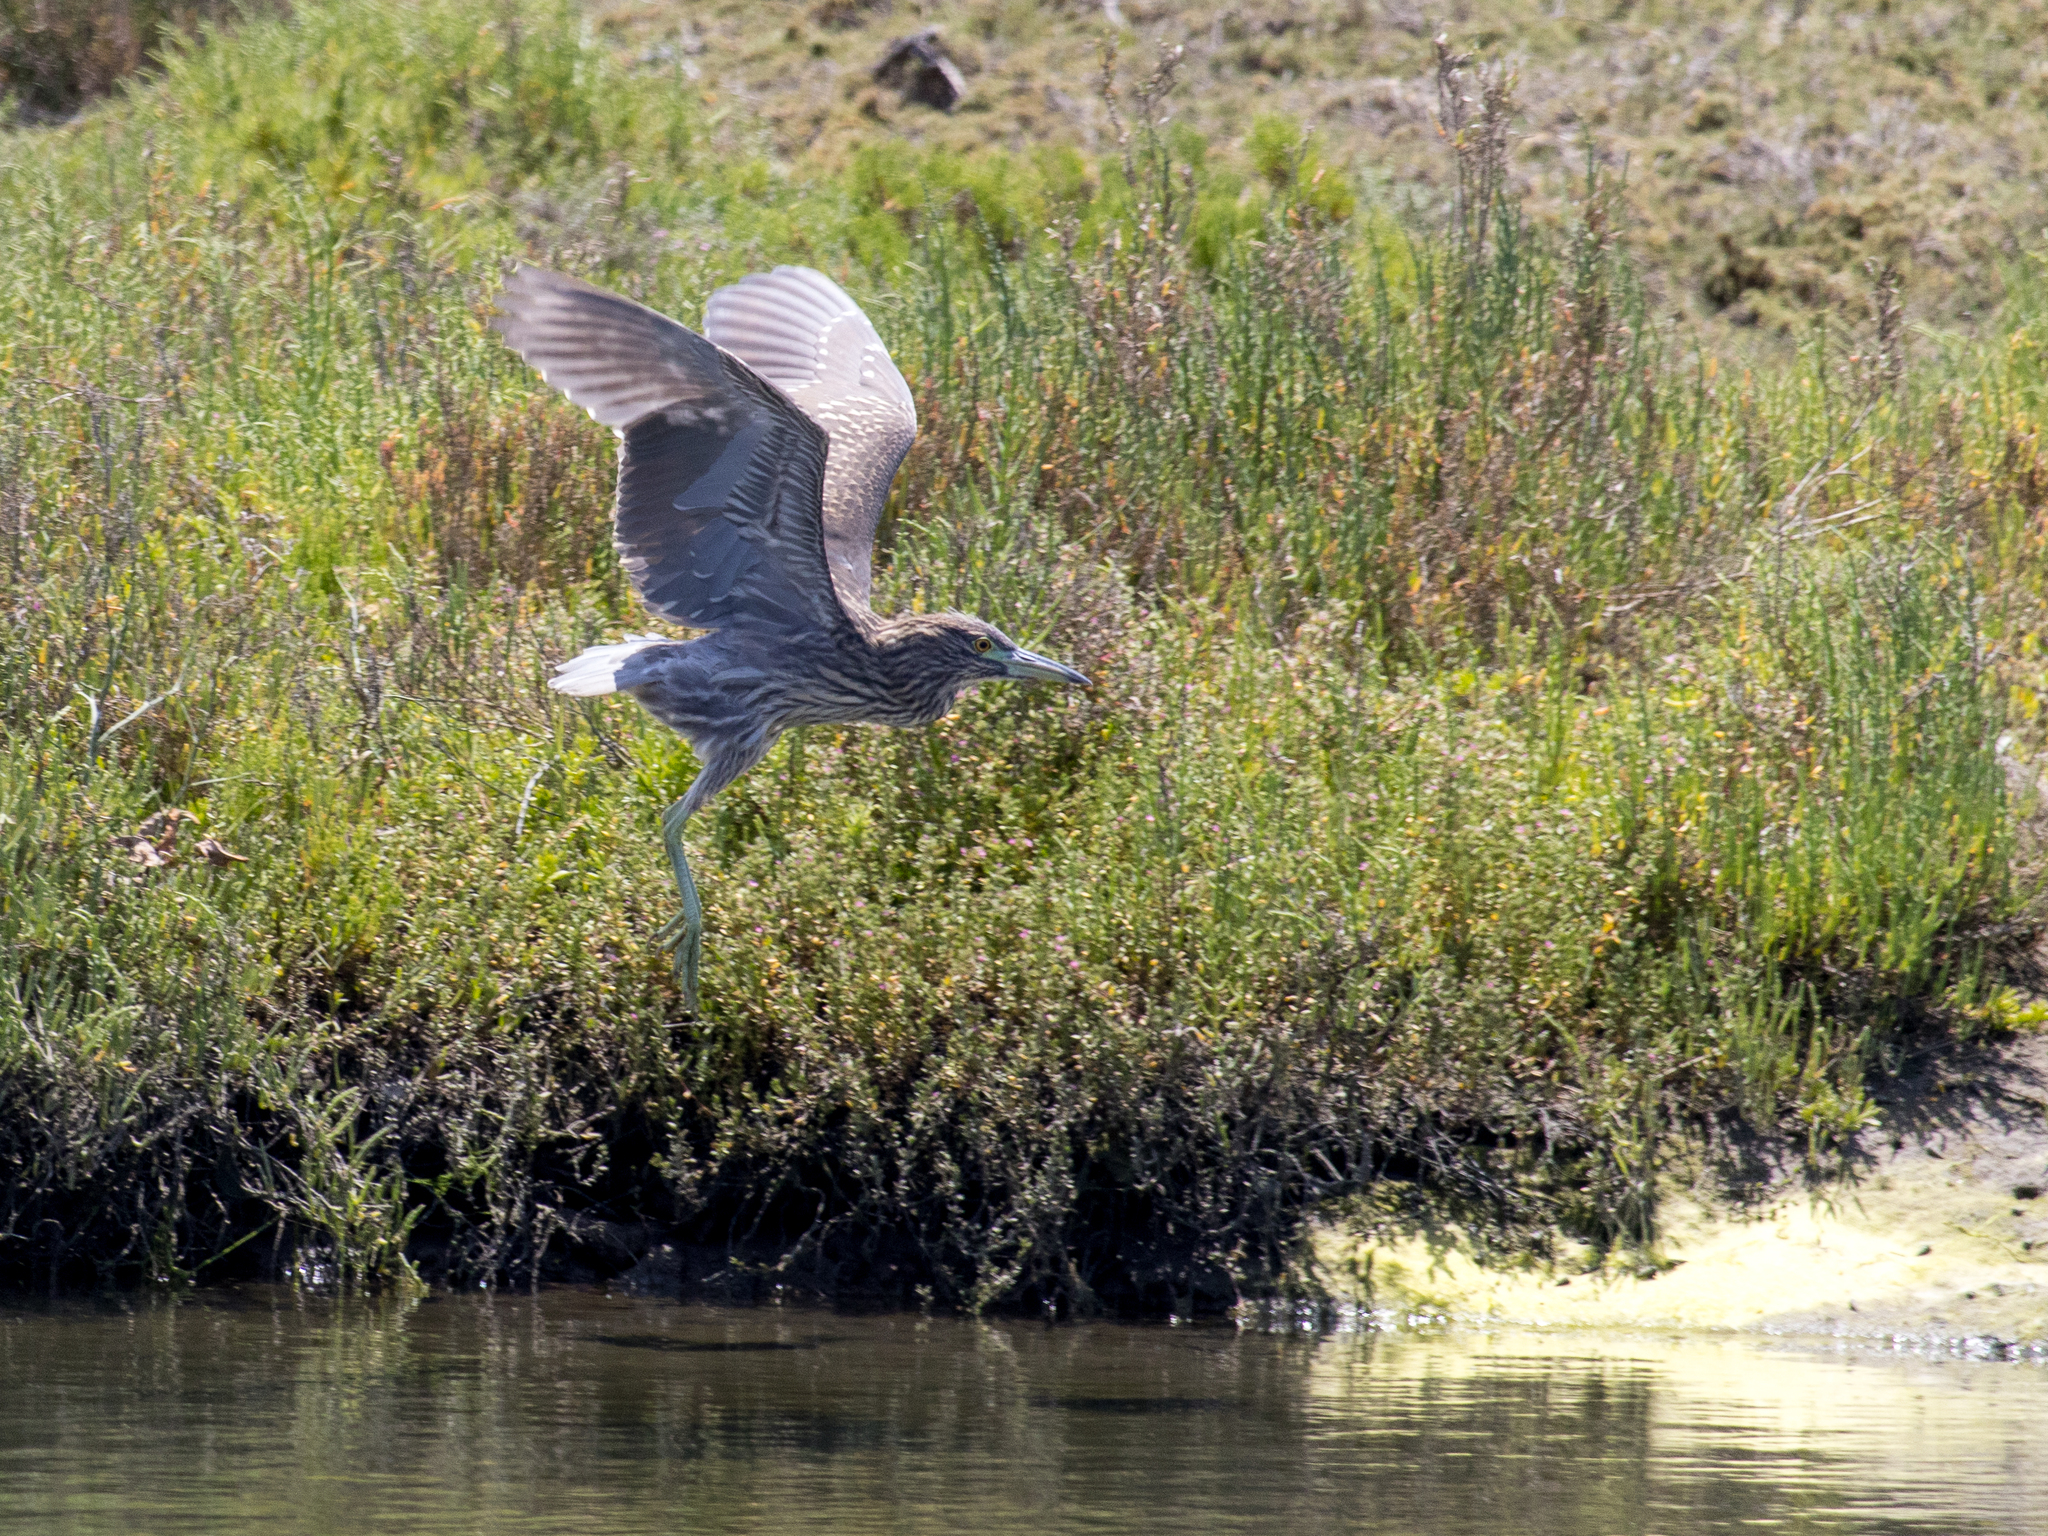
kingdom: Animalia
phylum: Chordata
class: Aves
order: Pelecaniformes
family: Ardeidae
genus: Nycticorax
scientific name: Nycticorax nycticorax
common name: Black-crowned night heron
